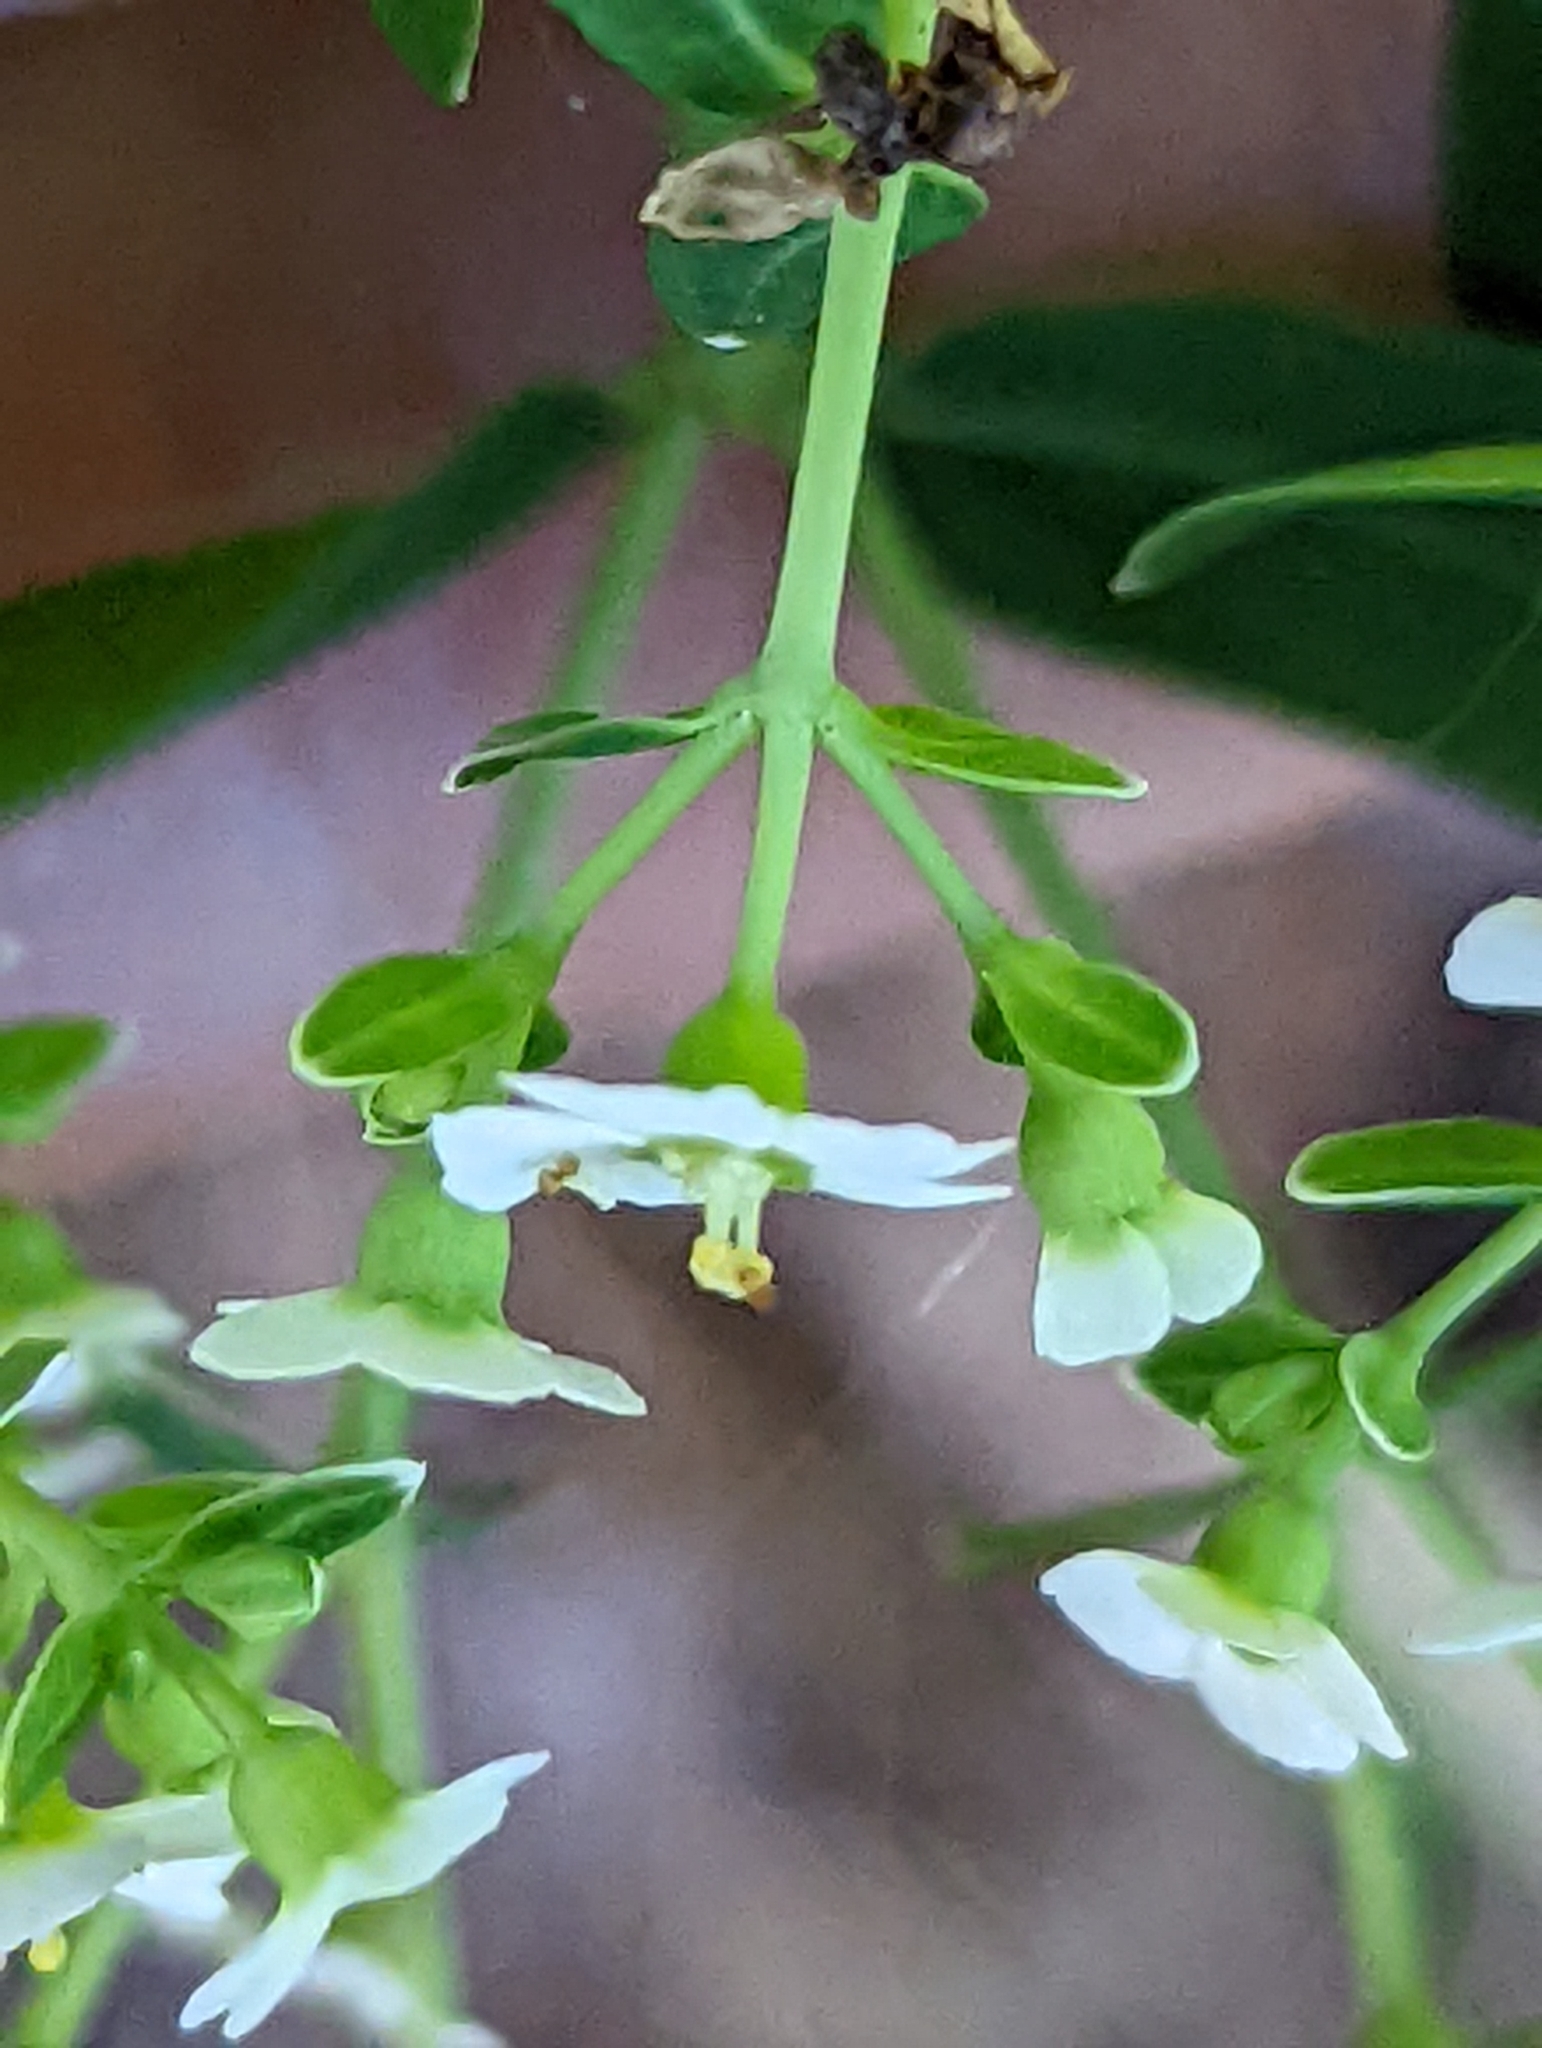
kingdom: Plantae
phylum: Tracheophyta
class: Magnoliopsida
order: Malpighiales
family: Euphorbiaceae
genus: Euphorbia
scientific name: Euphorbia corollata
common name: Flowering spurge
